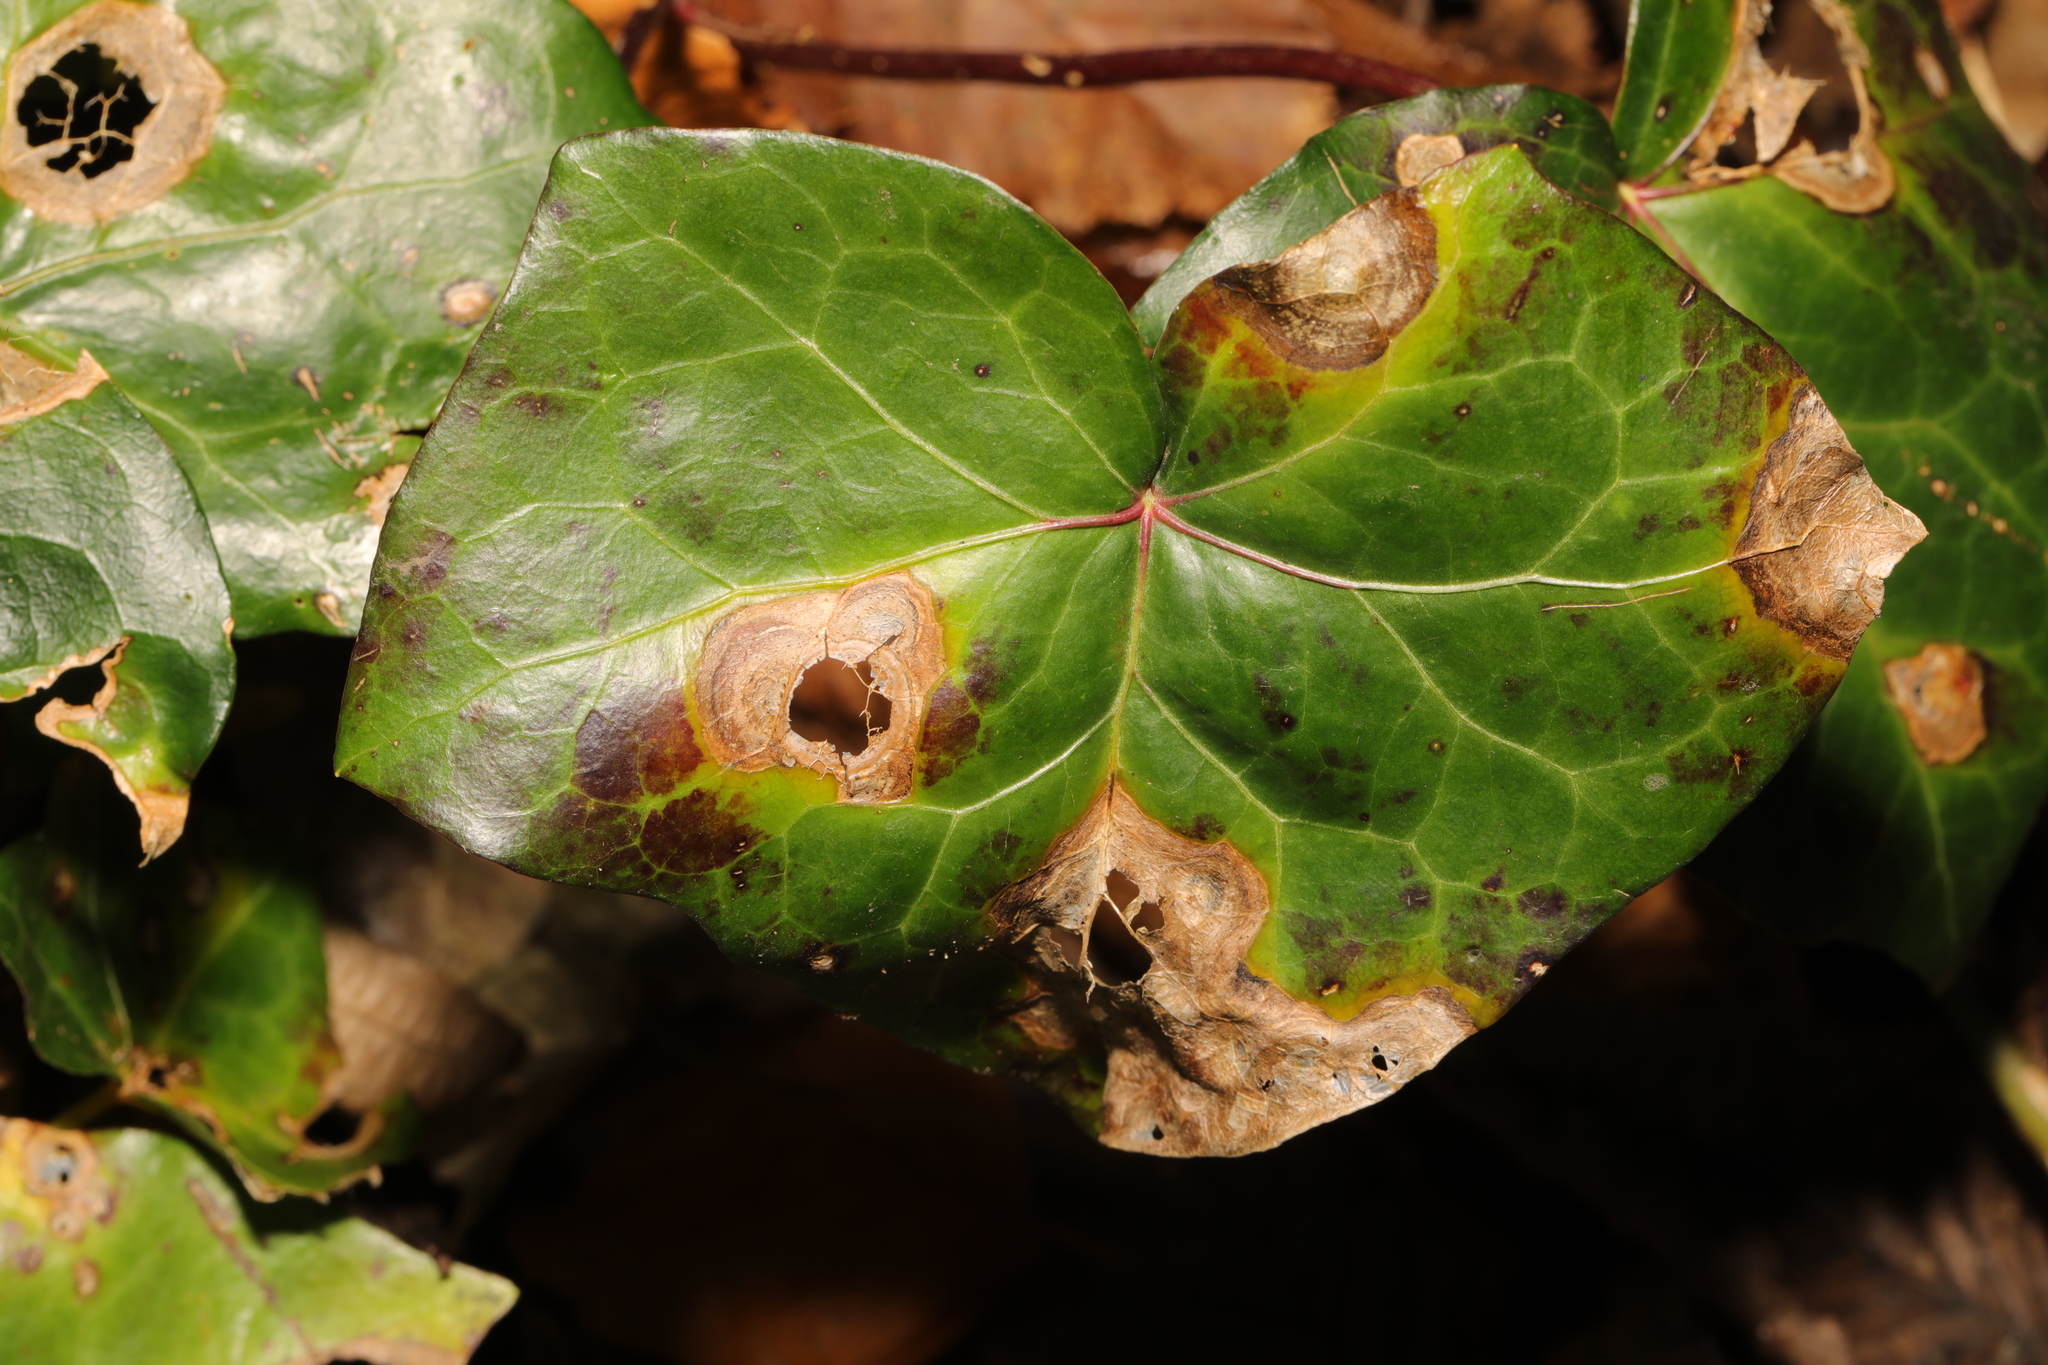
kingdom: Fungi
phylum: Ascomycota
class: Dothideomycetes
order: Pleosporales
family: Didymellaceae
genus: Boeremia
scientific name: Boeremia hedericola
